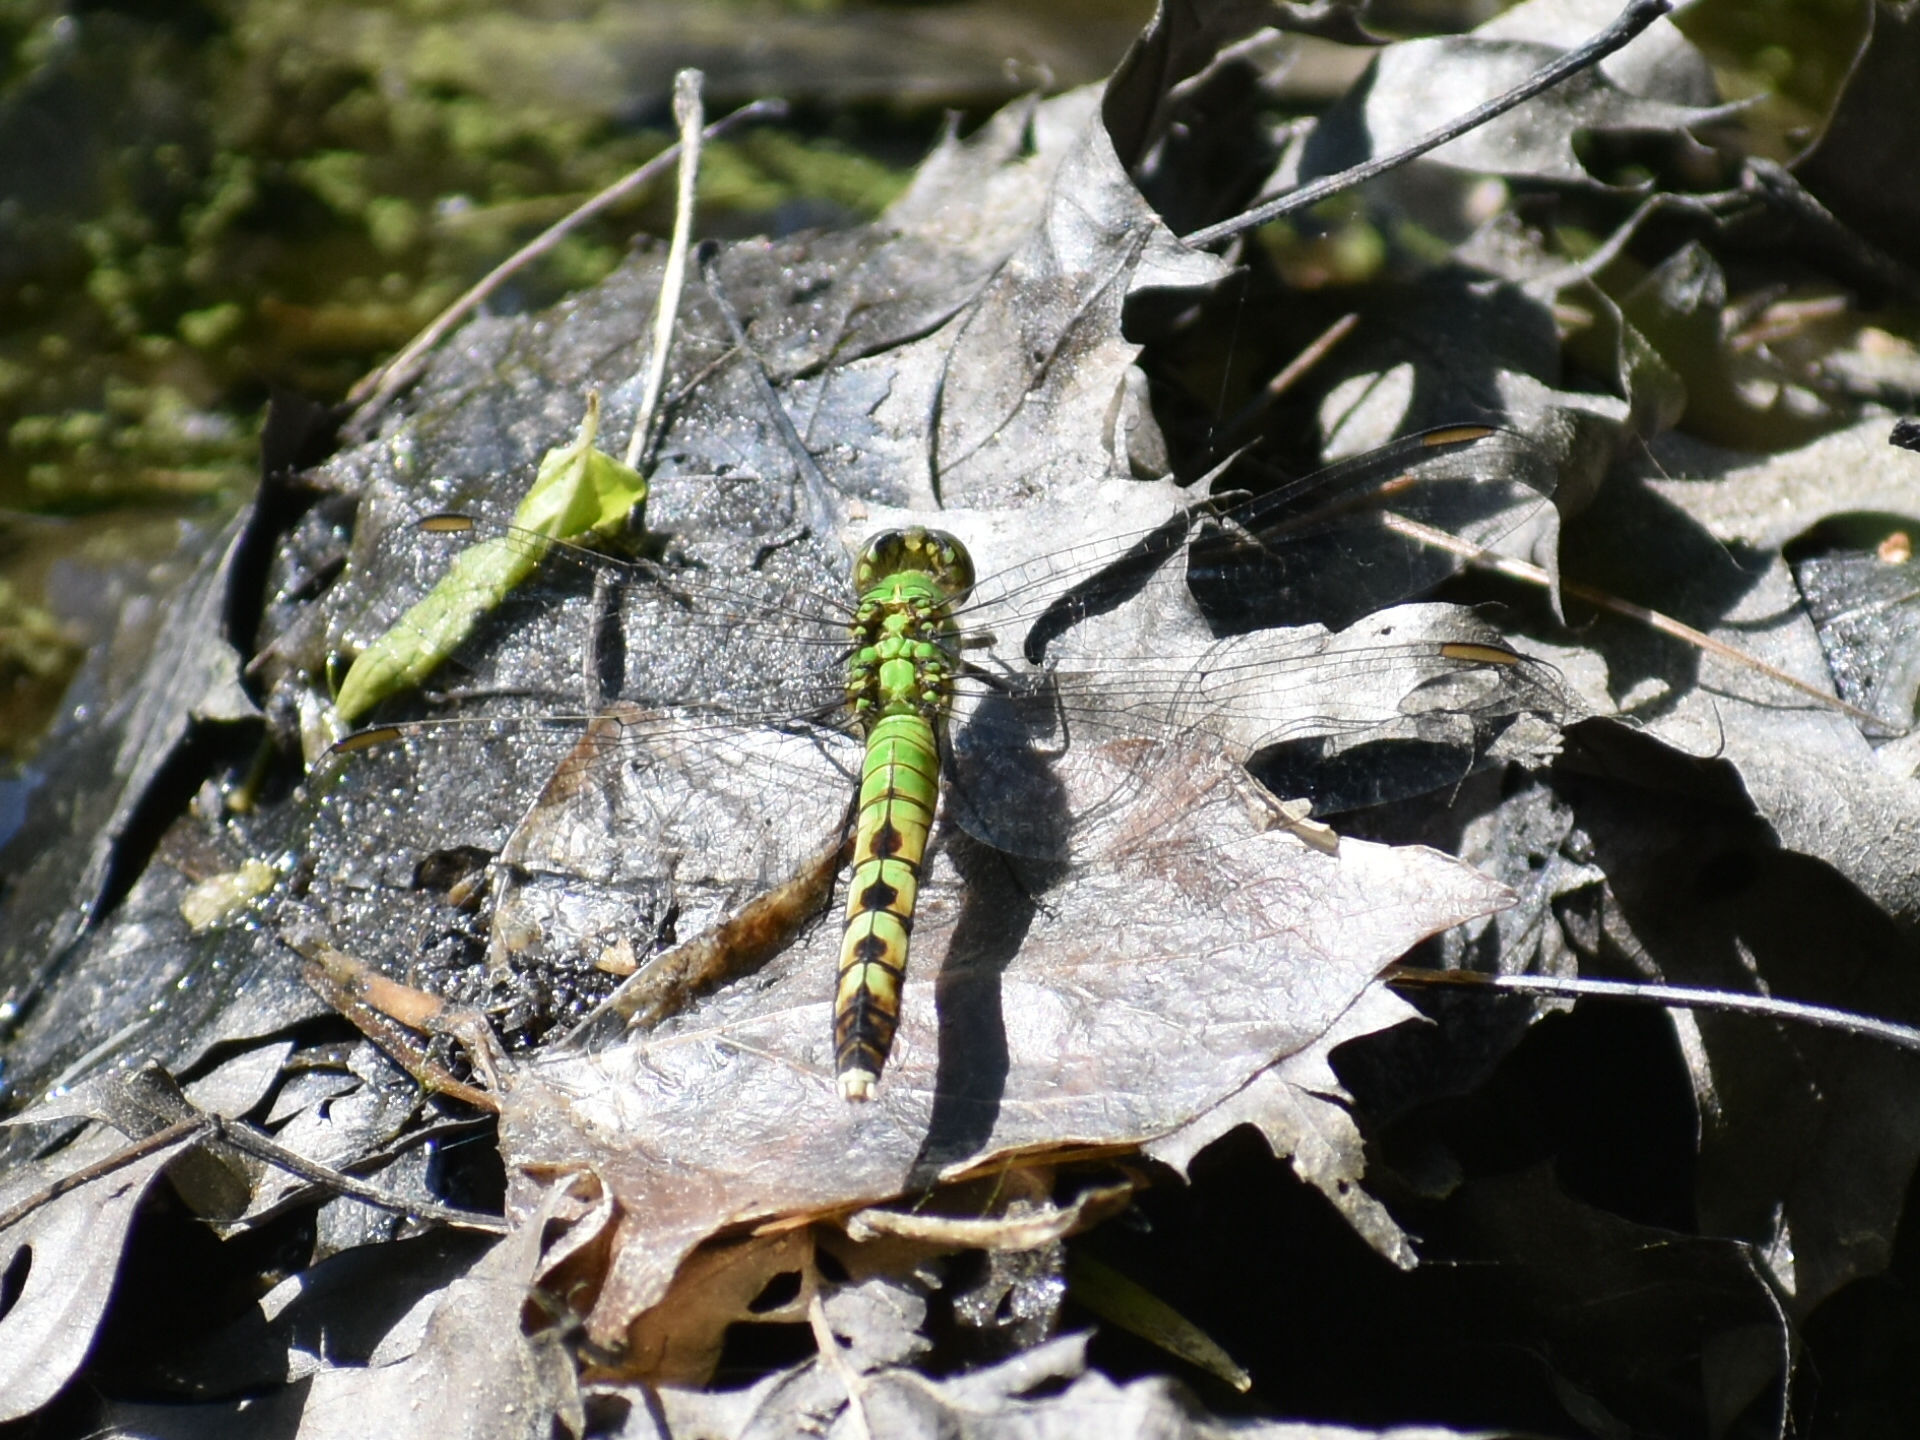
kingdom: Animalia
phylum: Arthropoda
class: Insecta
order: Odonata
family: Libellulidae
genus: Erythemis
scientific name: Erythemis simplicicollis
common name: Eastern pondhawk
